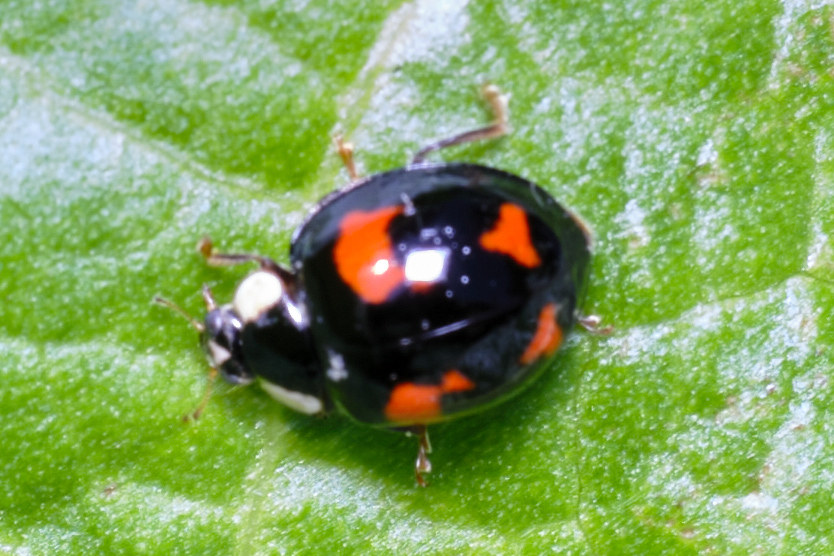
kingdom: Animalia
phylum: Arthropoda
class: Insecta
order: Coleoptera
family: Coccinellidae
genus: Harmonia
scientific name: Harmonia axyridis
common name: Harlequin ladybird
